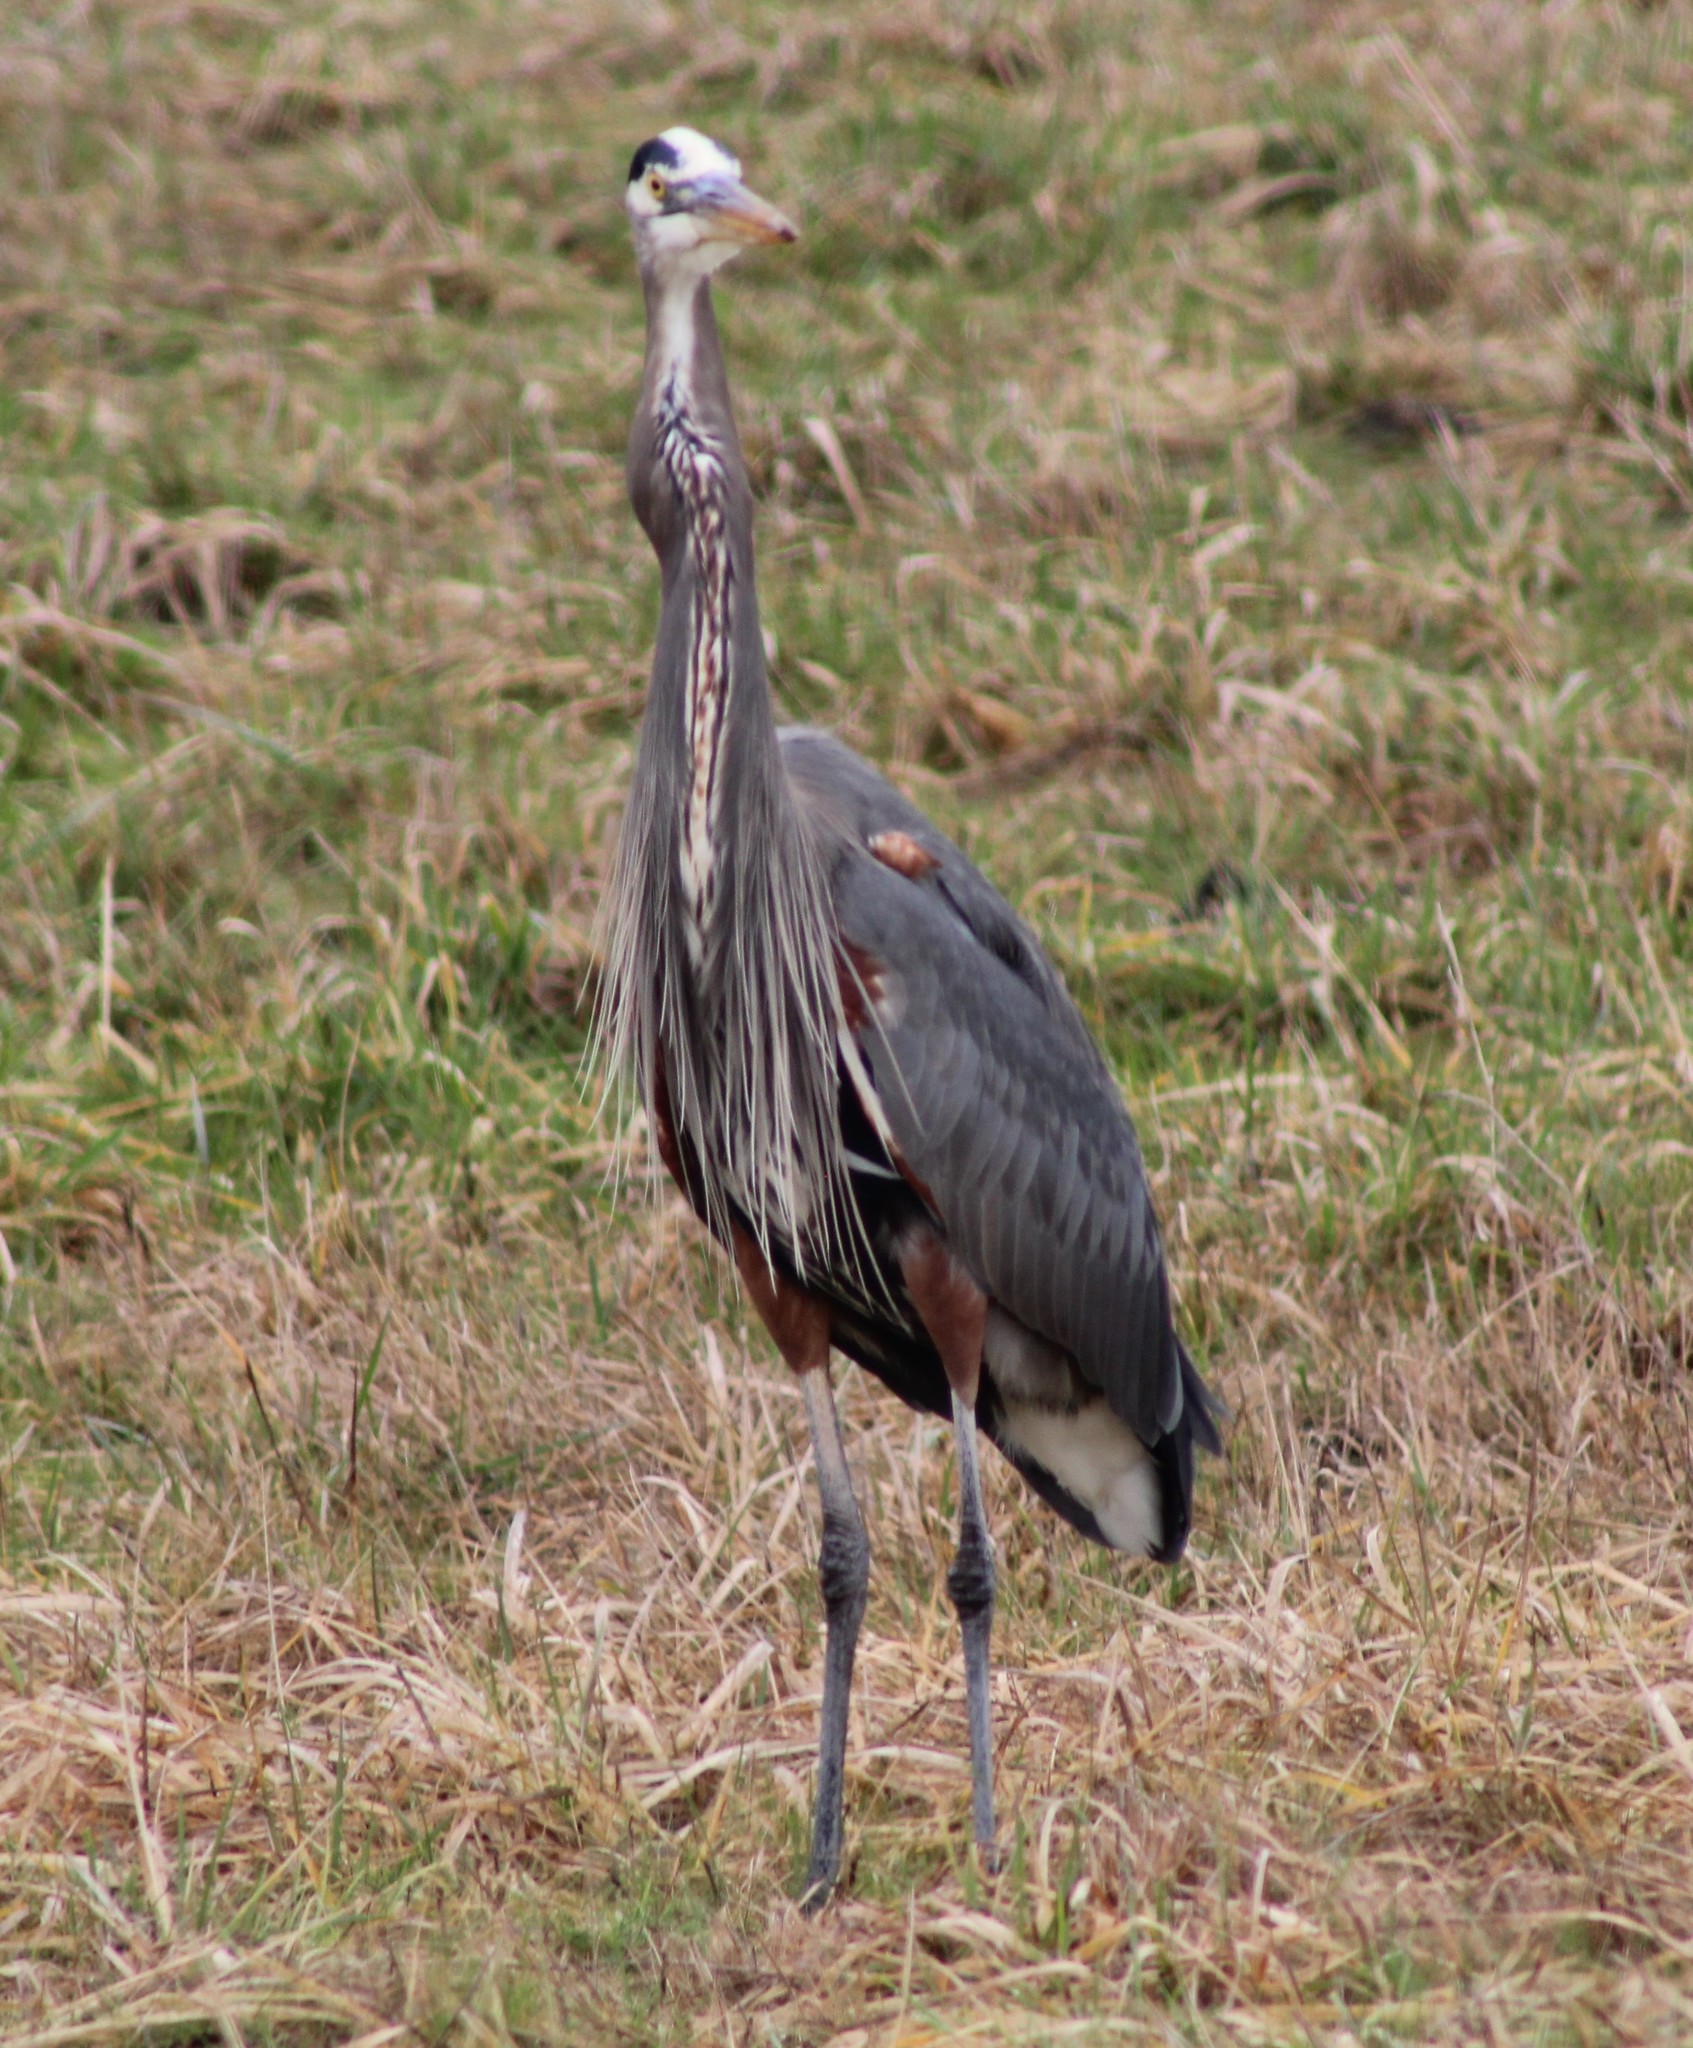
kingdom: Animalia
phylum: Chordata
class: Aves
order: Pelecaniformes
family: Ardeidae
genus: Ardea
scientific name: Ardea herodias
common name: Great blue heron
